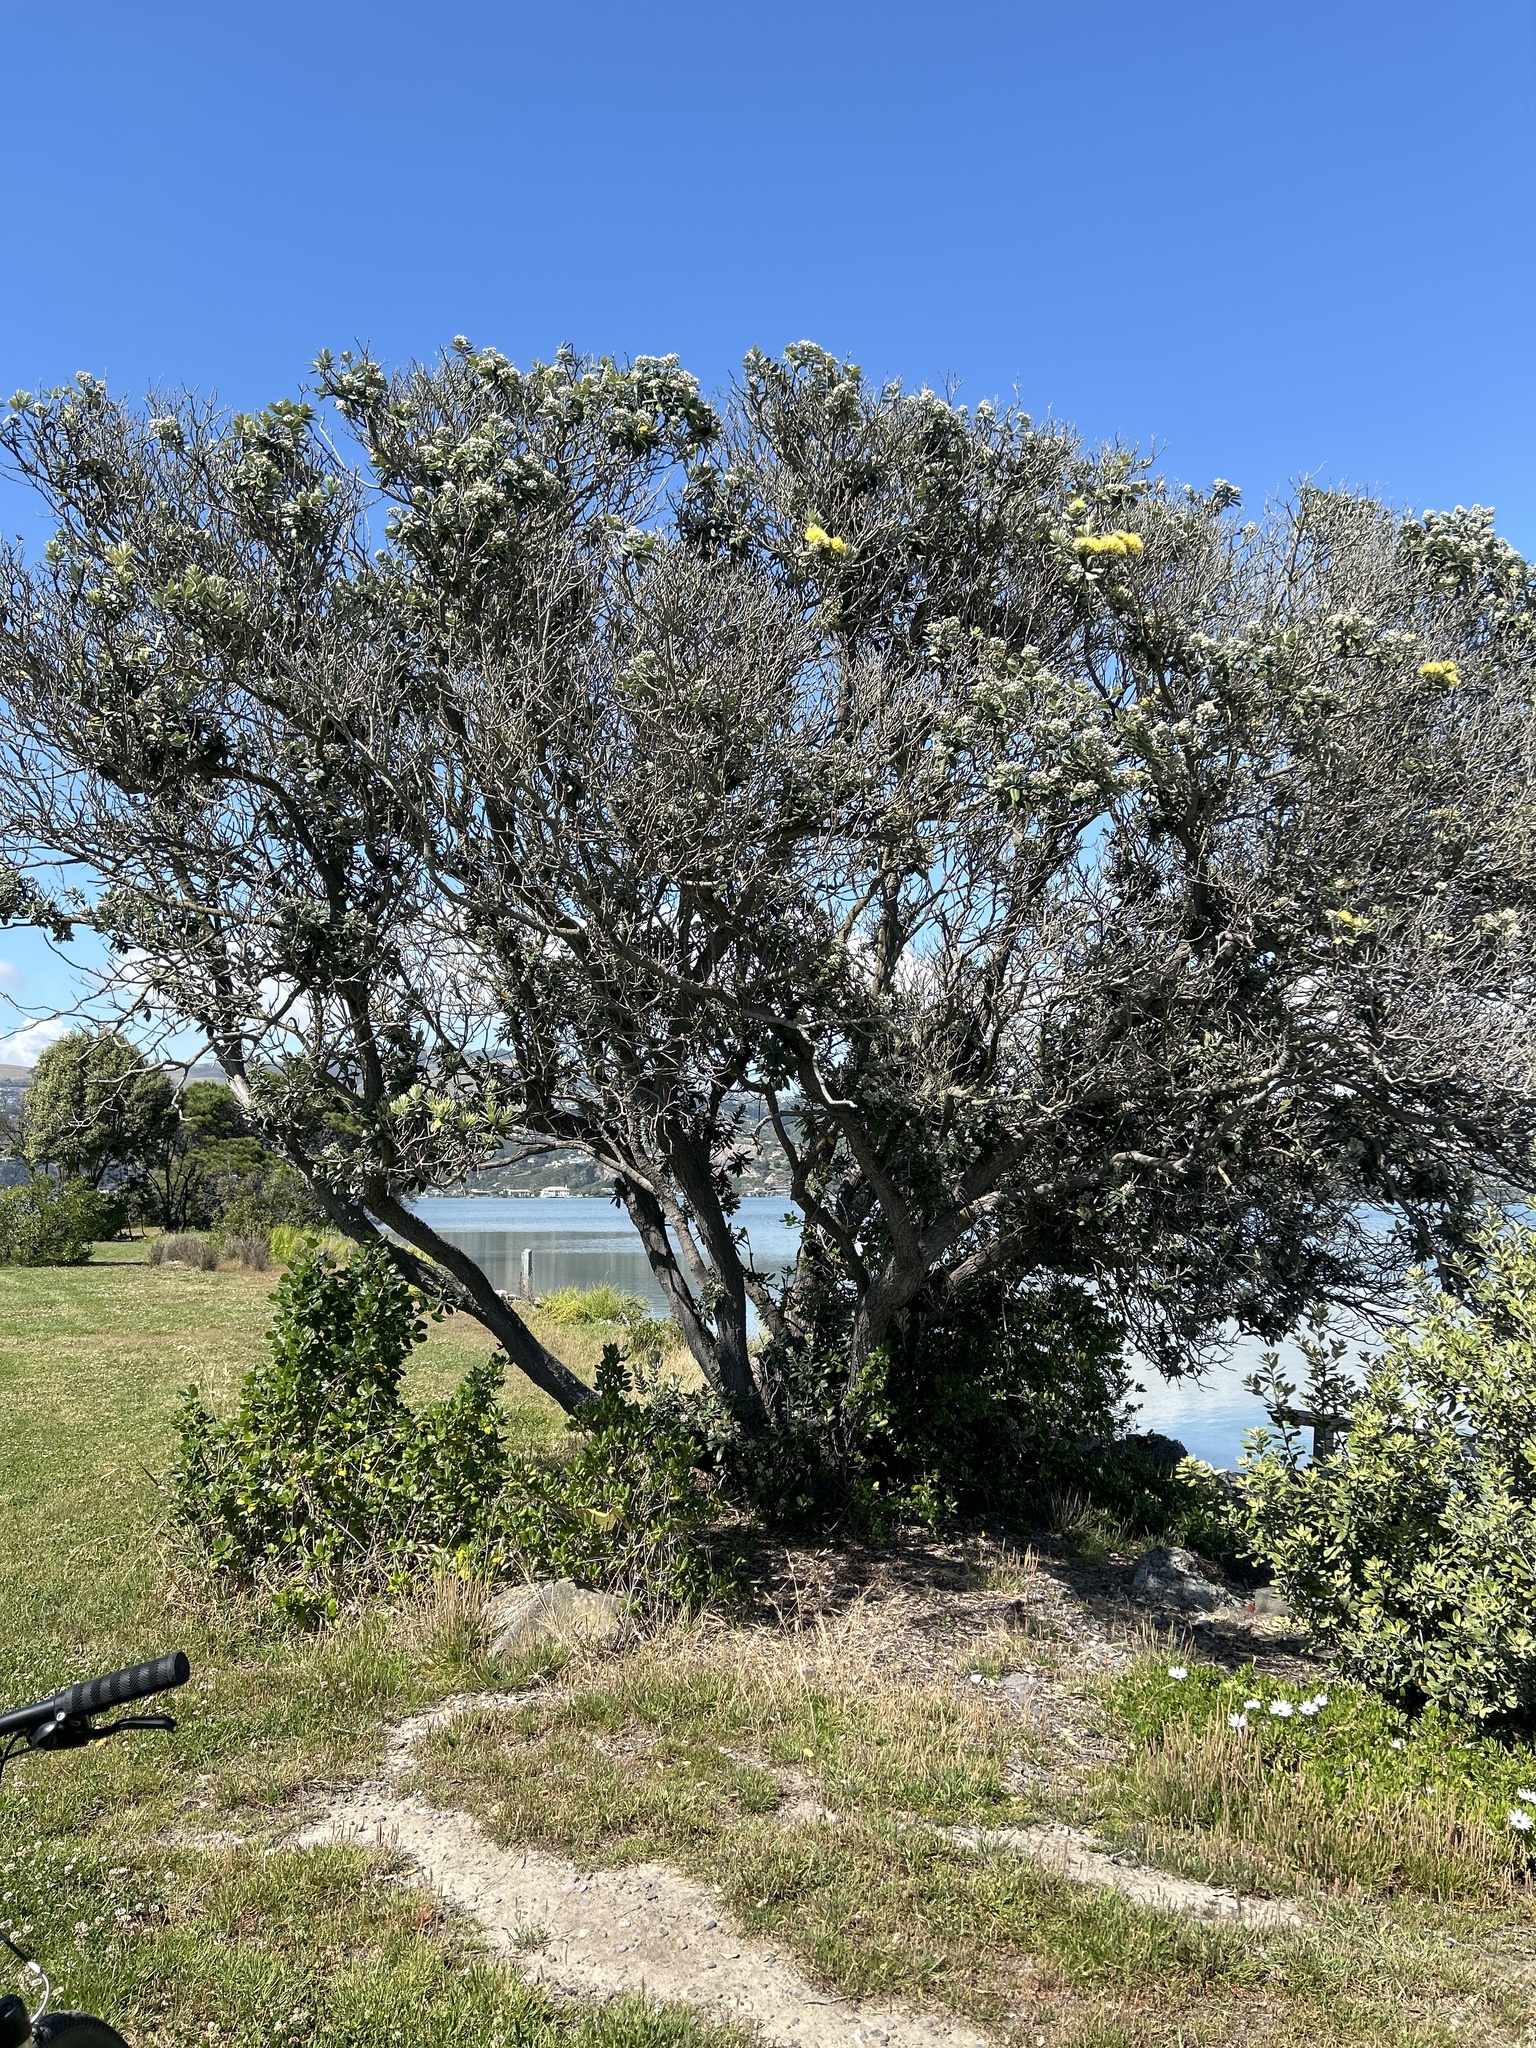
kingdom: Plantae
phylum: Tracheophyta
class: Magnoliopsida
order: Myrtales
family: Myrtaceae
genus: Metrosideros
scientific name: Metrosideros excelsa
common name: New zealand christmastree
